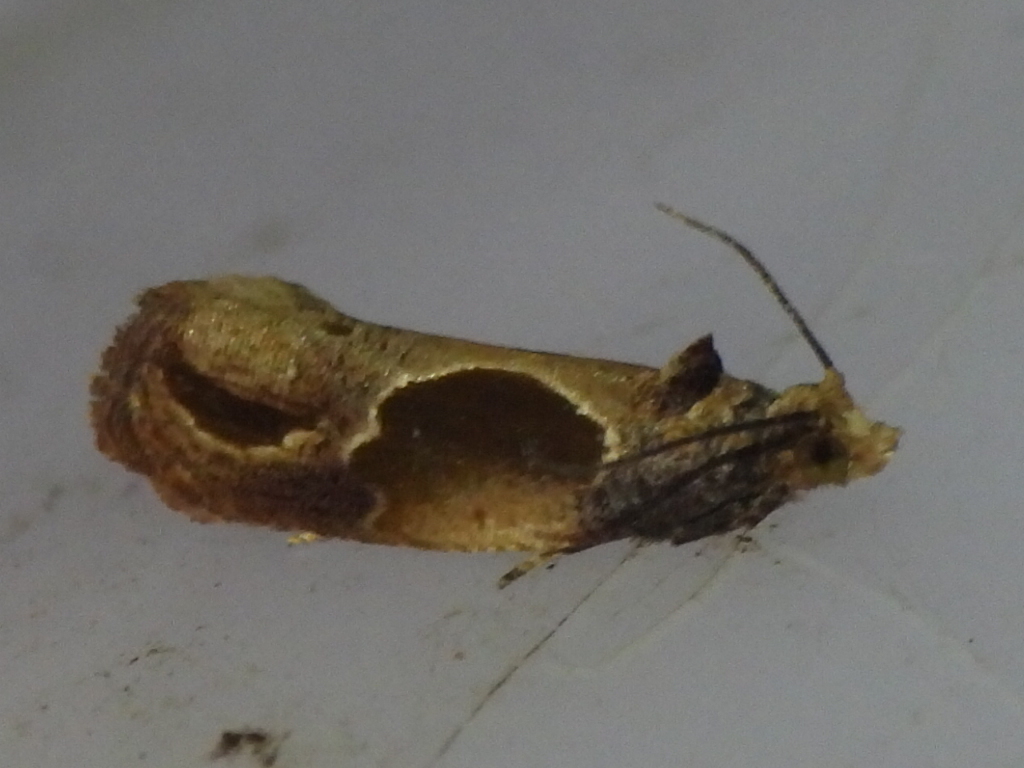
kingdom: Animalia
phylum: Arthropoda
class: Insecta
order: Lepidoptera
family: Tortricidae
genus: Eumarozia
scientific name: Eumarozia malachitana
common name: Sculptured moth
